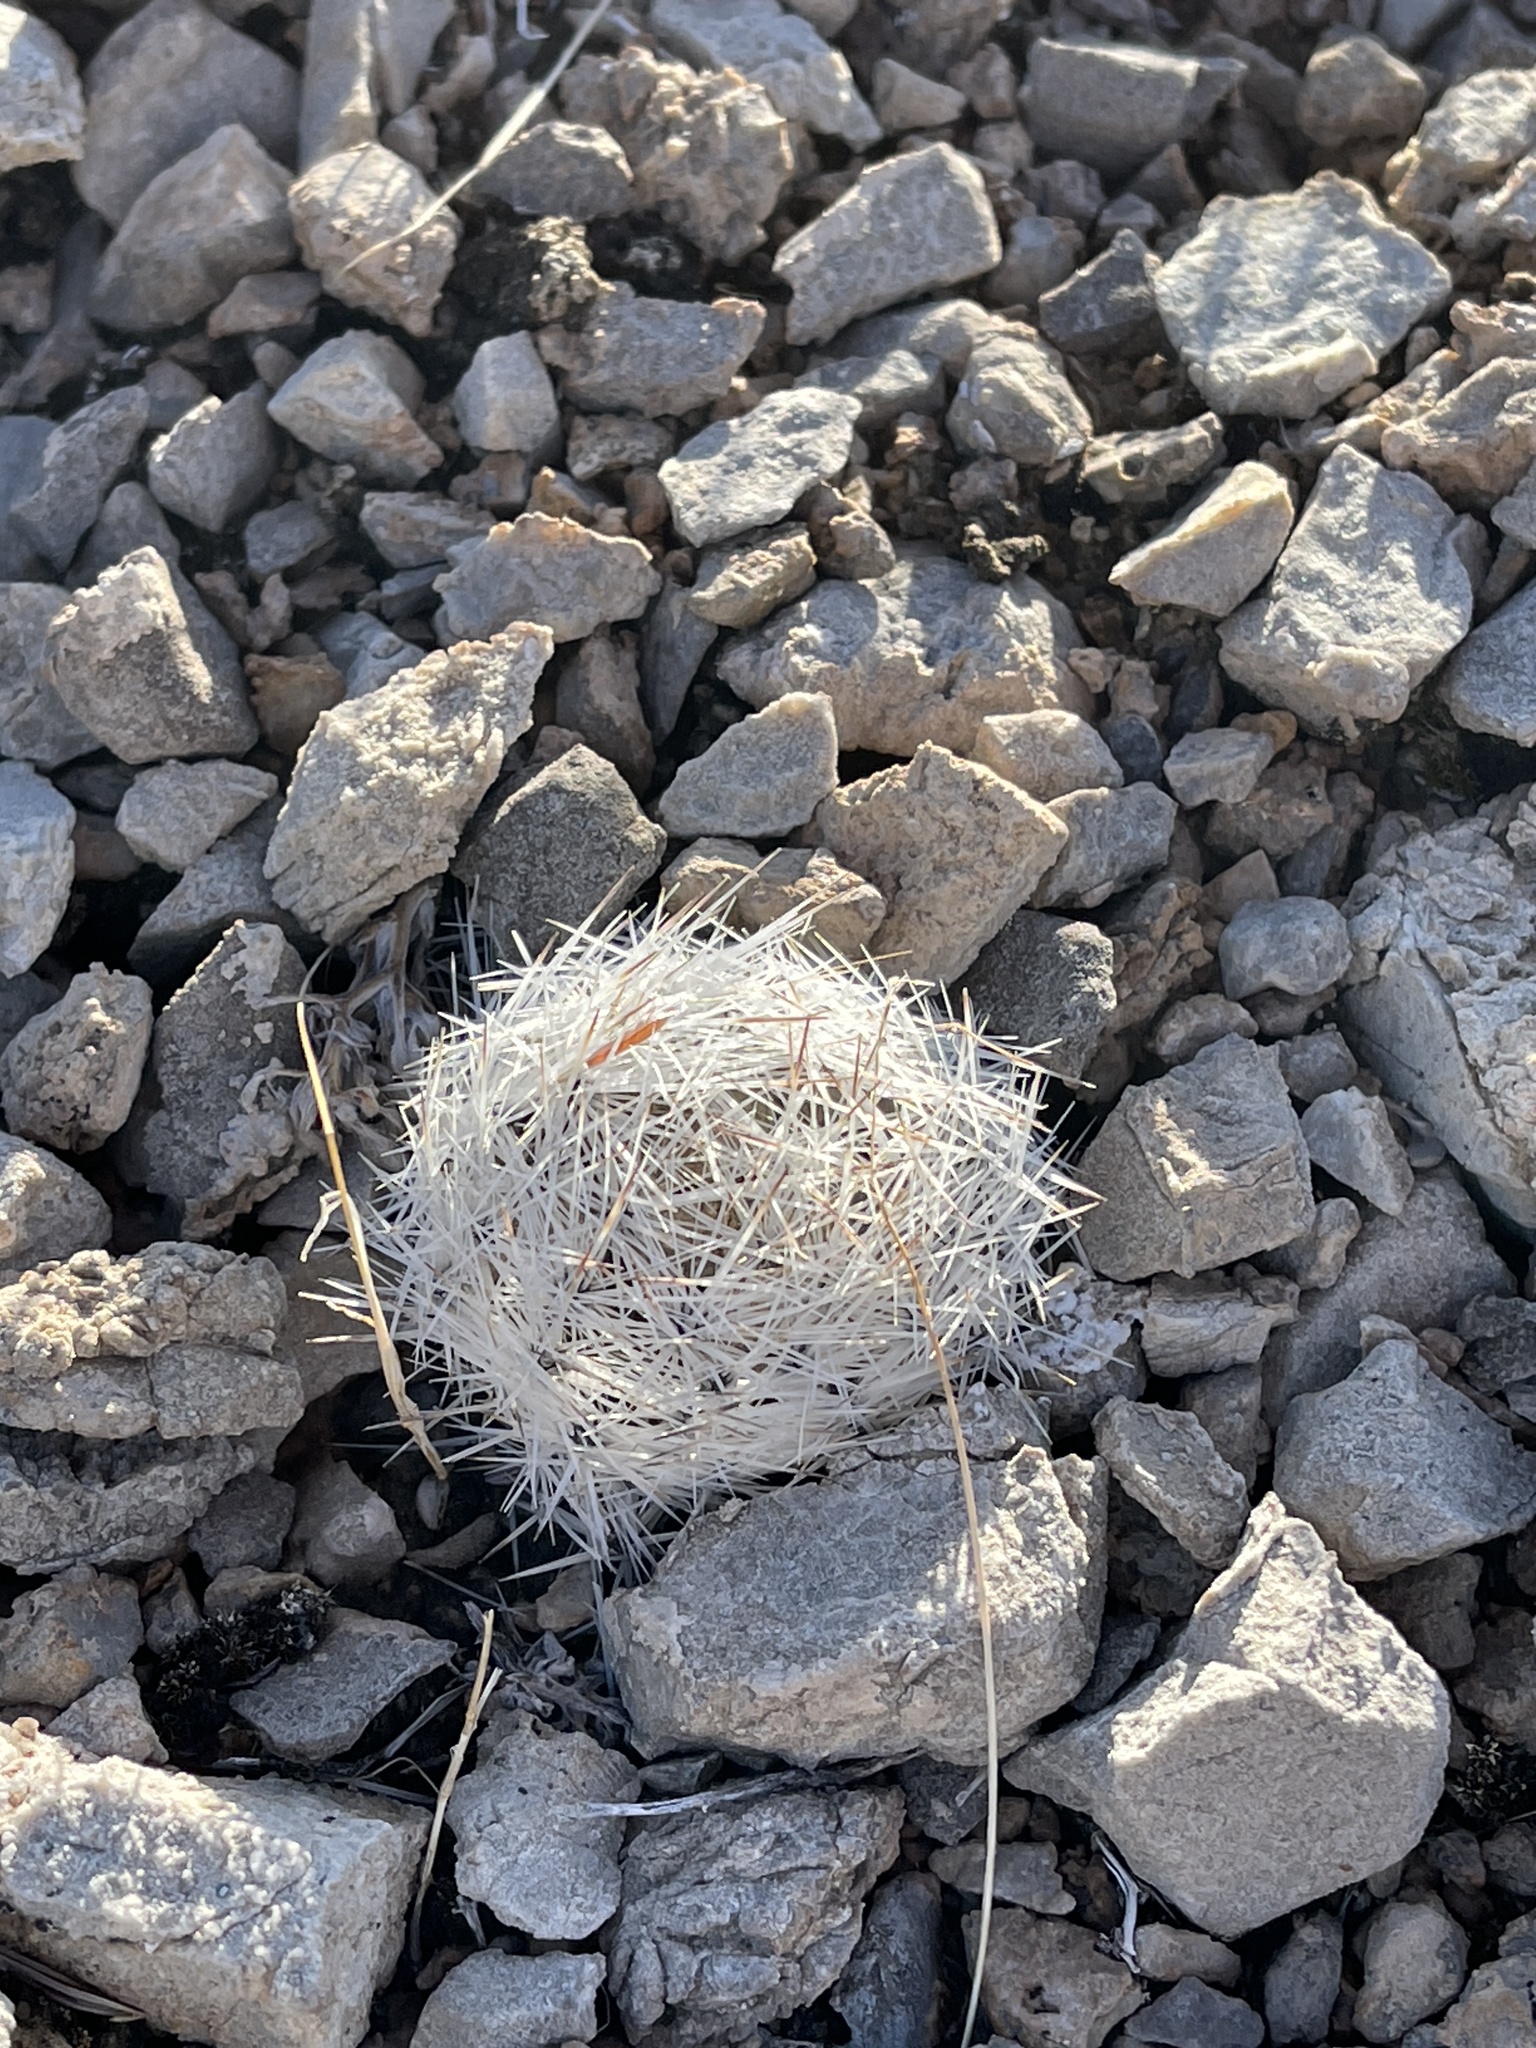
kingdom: Plantae
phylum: Tracheophyta
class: Magnoliopsida
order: Caryophyllales
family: Cactaceae
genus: Pelecyphora
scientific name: Pelecyphora dasyacantha
